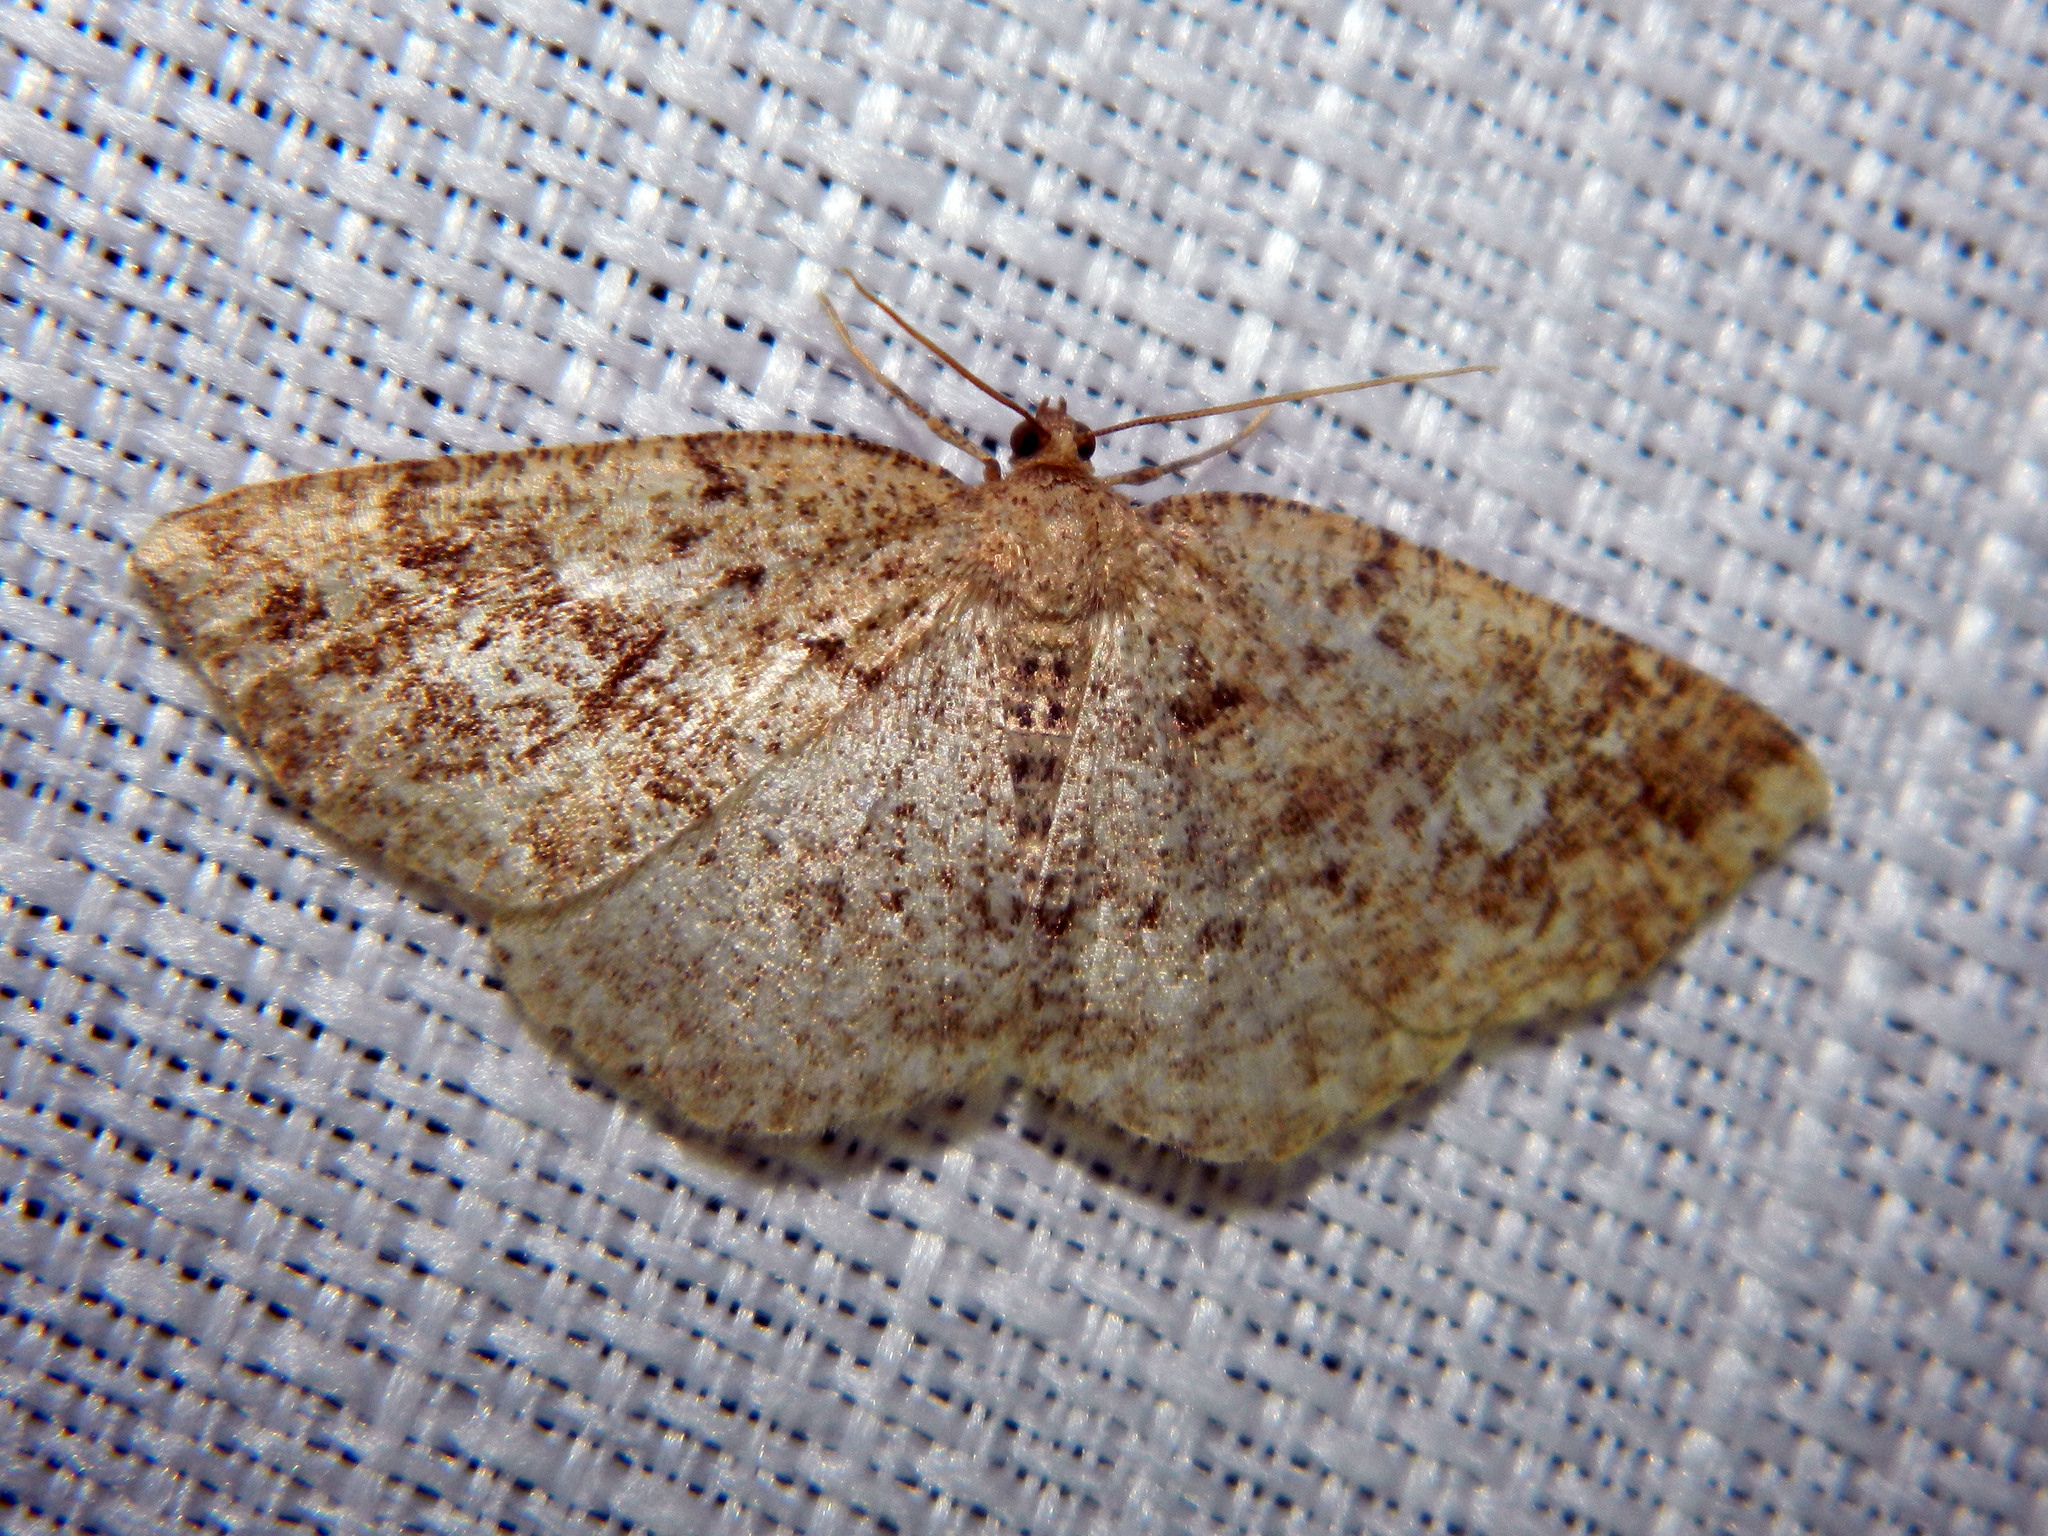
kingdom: Animalia
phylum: Arthropoda
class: Insecta
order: Lepidoptera
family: Geometridae
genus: Homochlodes
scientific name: Homochlodes fritillaria
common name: Pale homochlodes
